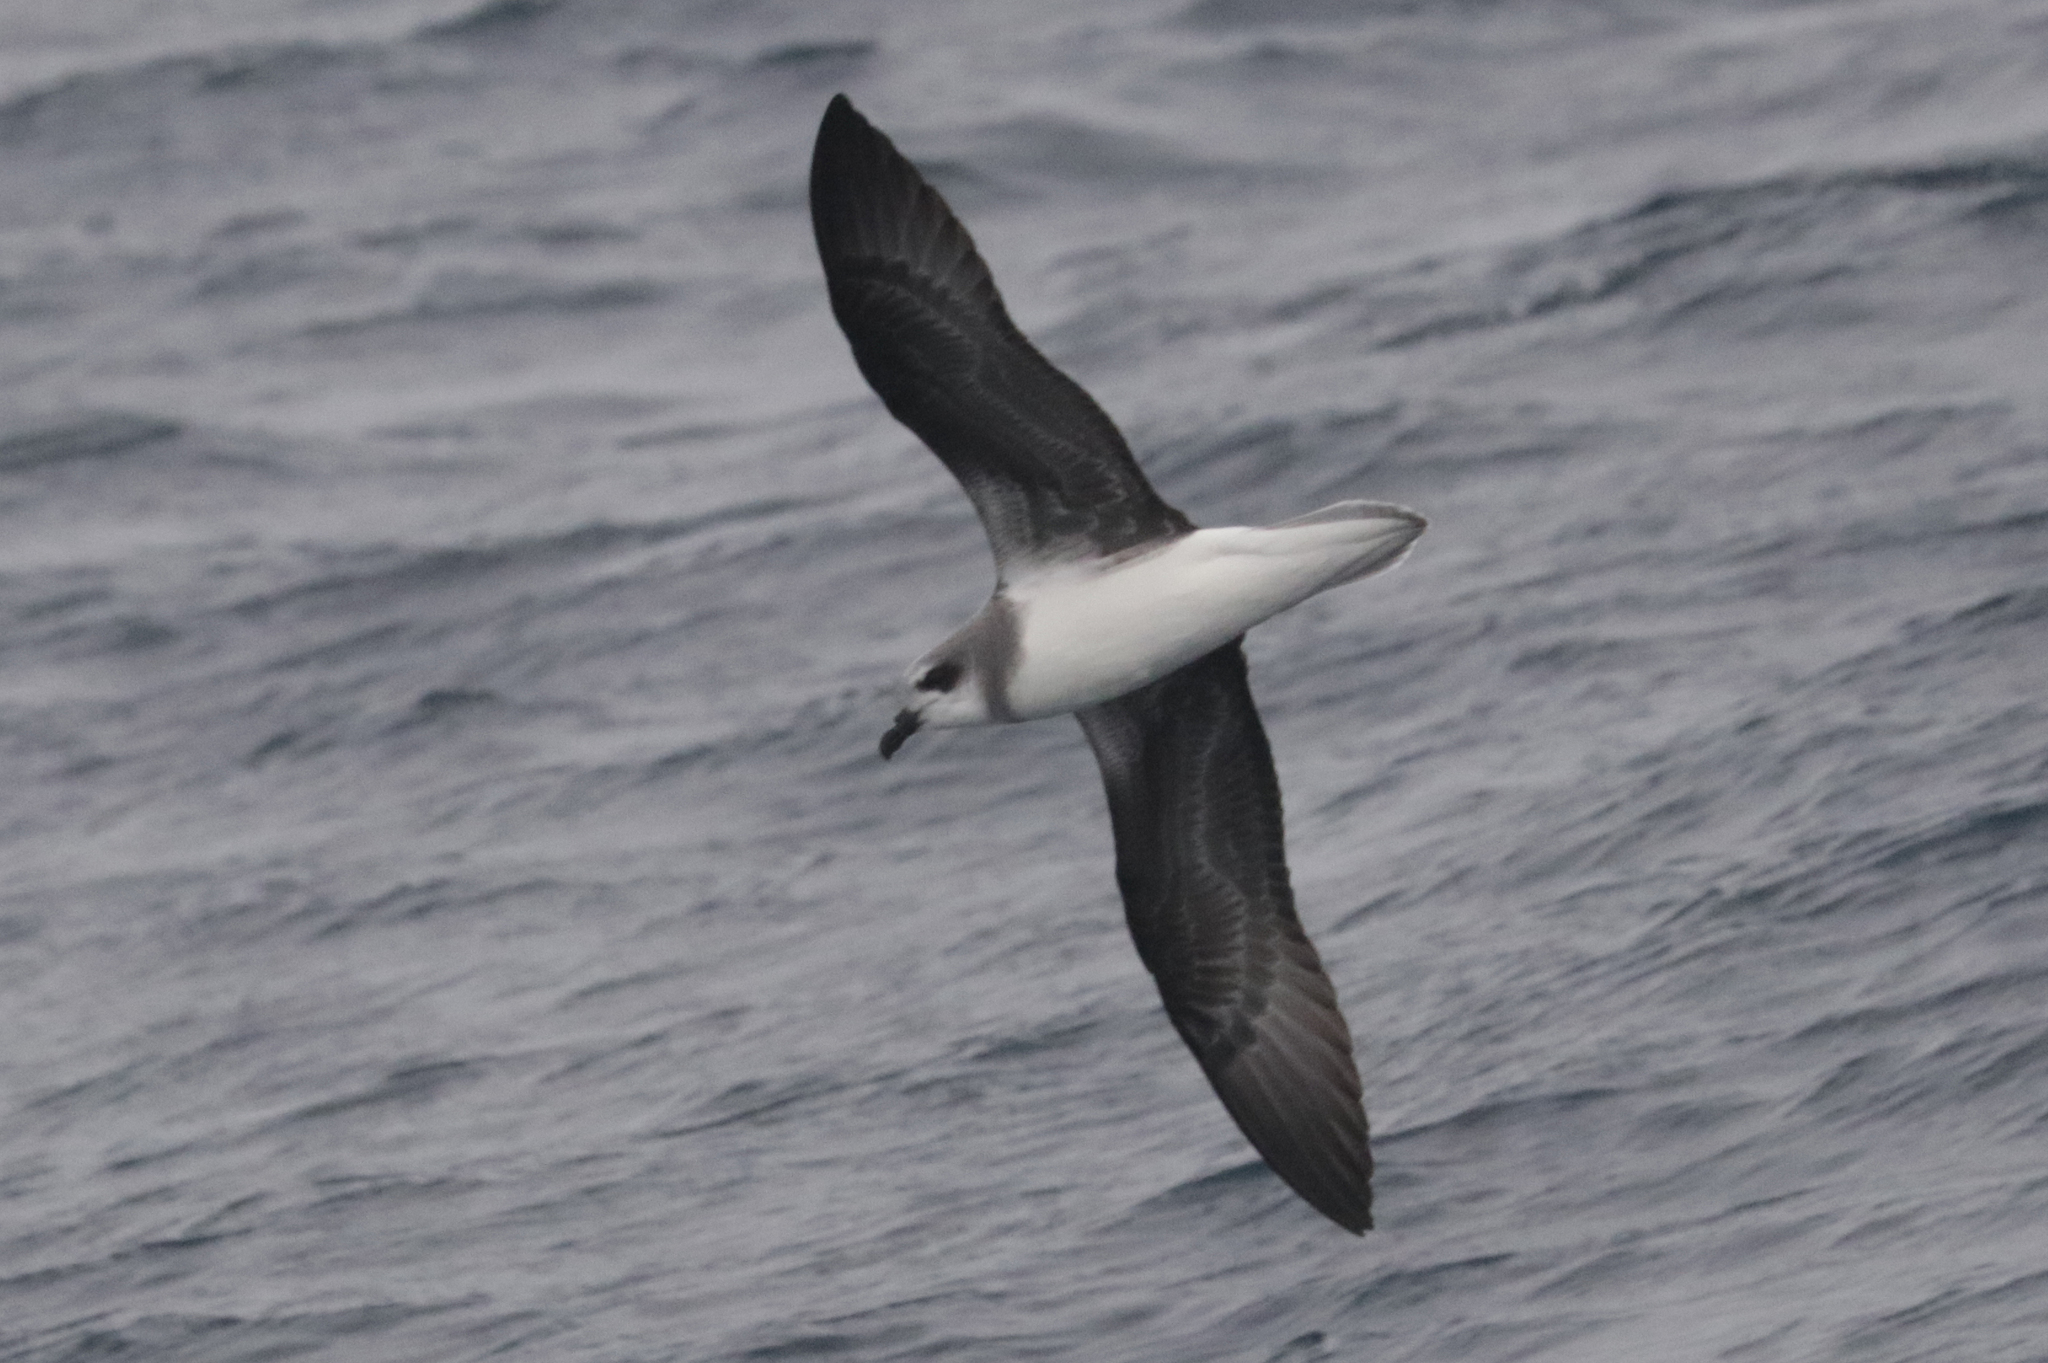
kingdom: Animalia
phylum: Chordata
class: Aves
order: Procellariiformes
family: Procellariidae
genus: Pterodroma
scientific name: Pterodroma mollis
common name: Soft-plumaged petrel
